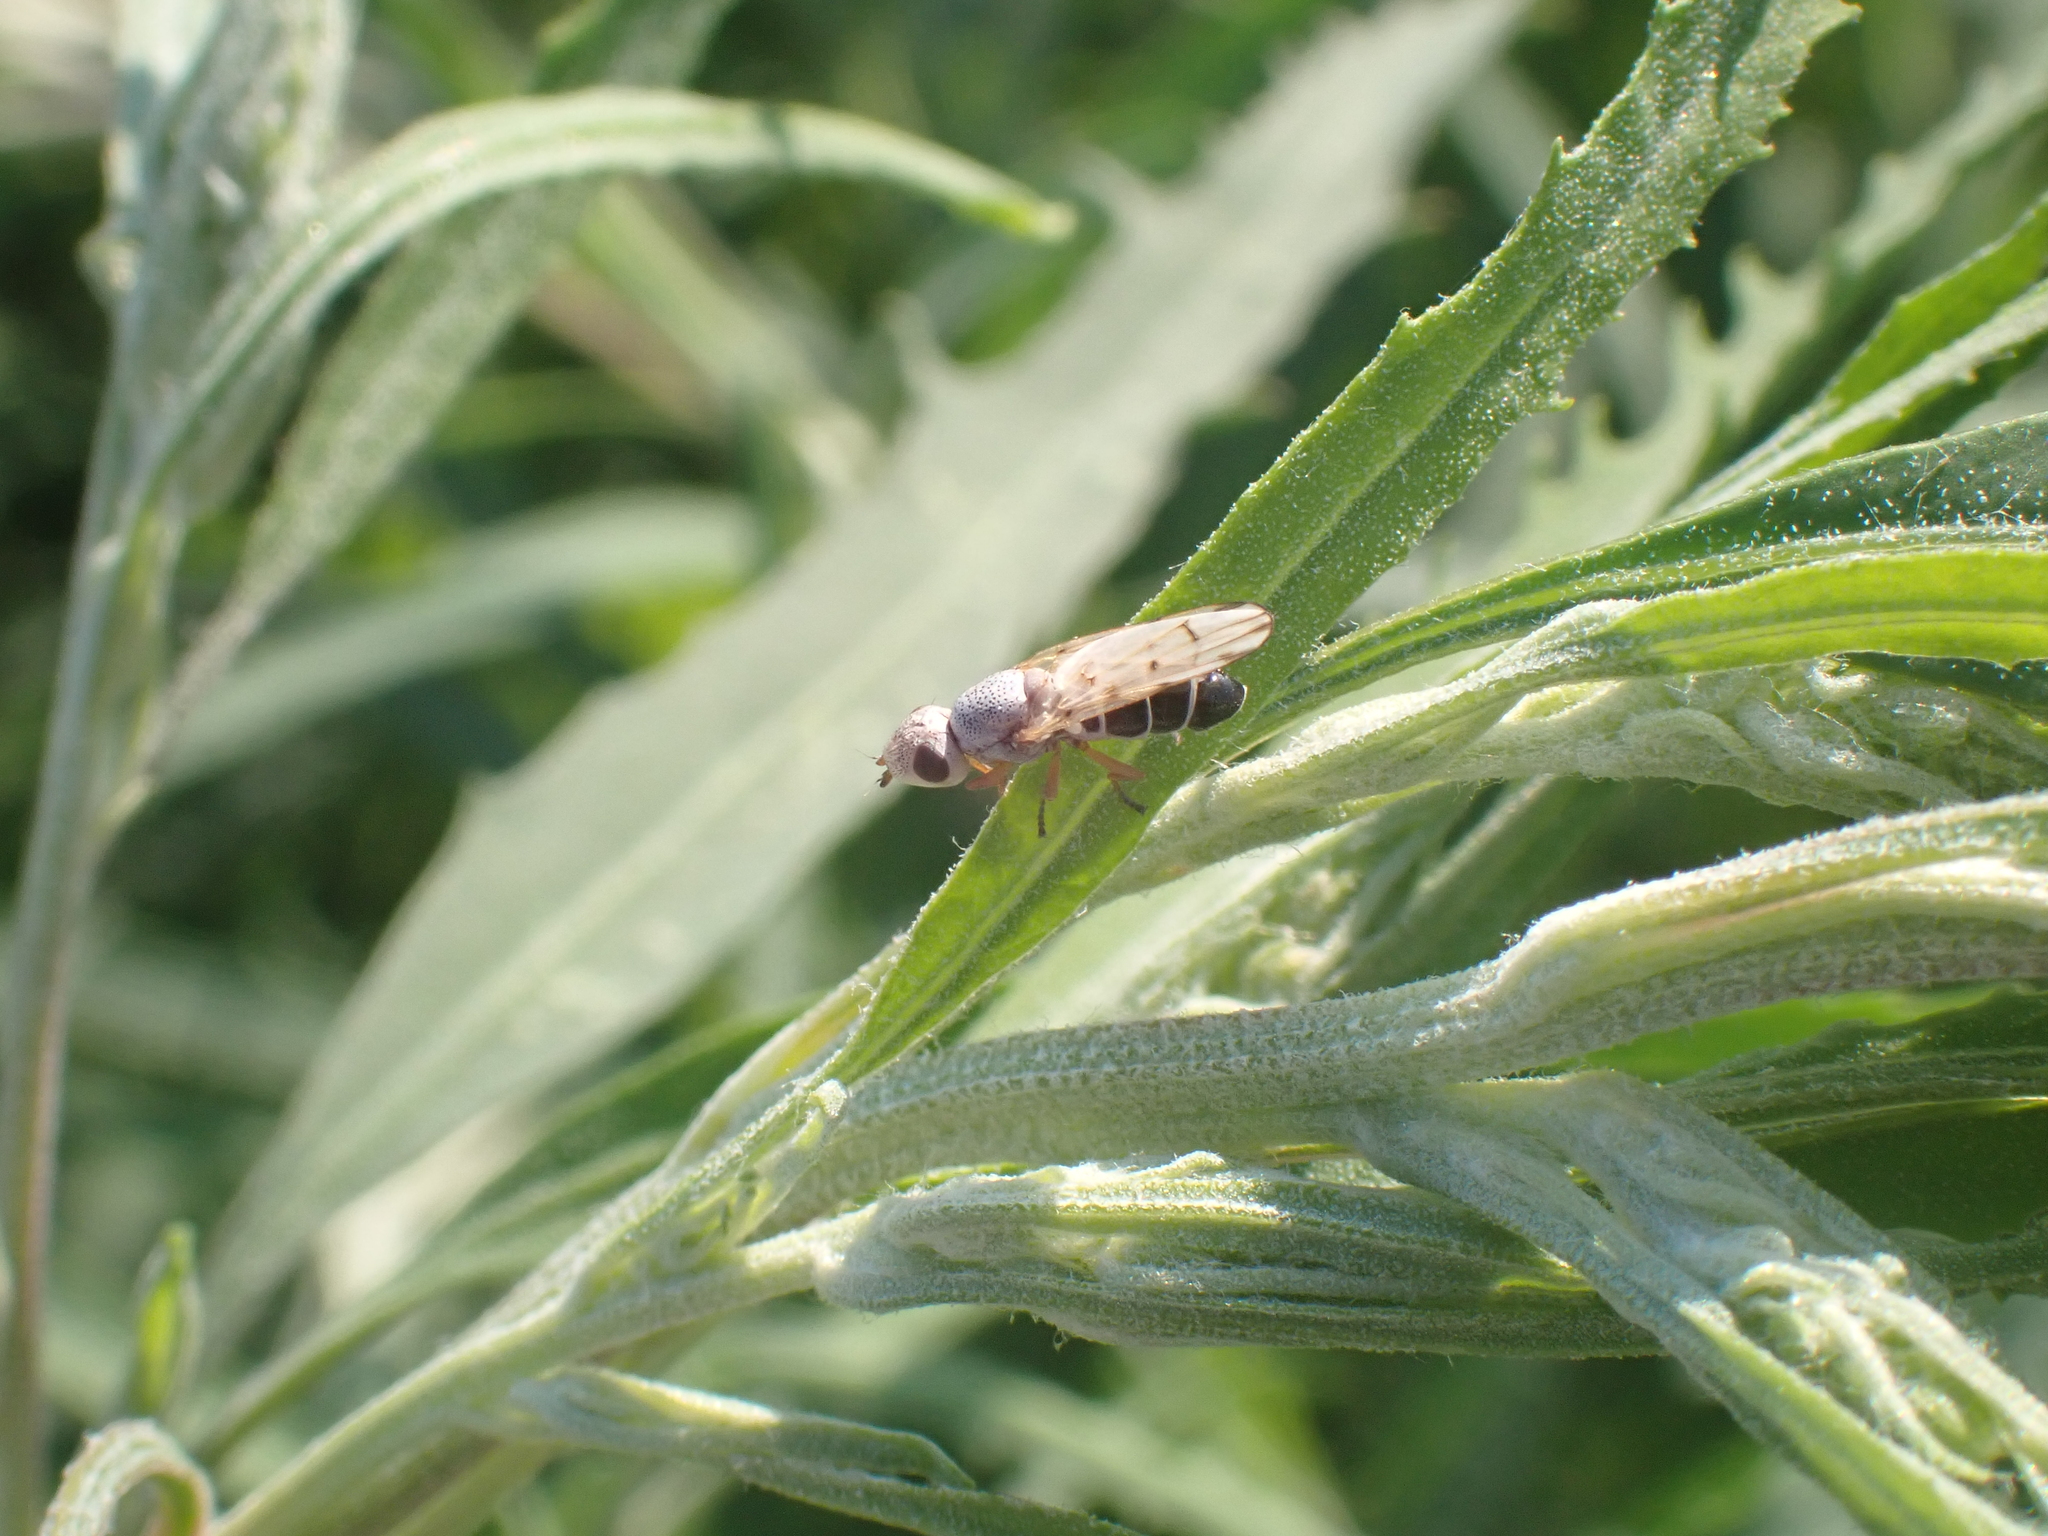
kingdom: Animalia
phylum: Arthropoda
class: Insecta
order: Diptera
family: Ulidiidae
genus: Tetanops
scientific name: Tetanops myopina
